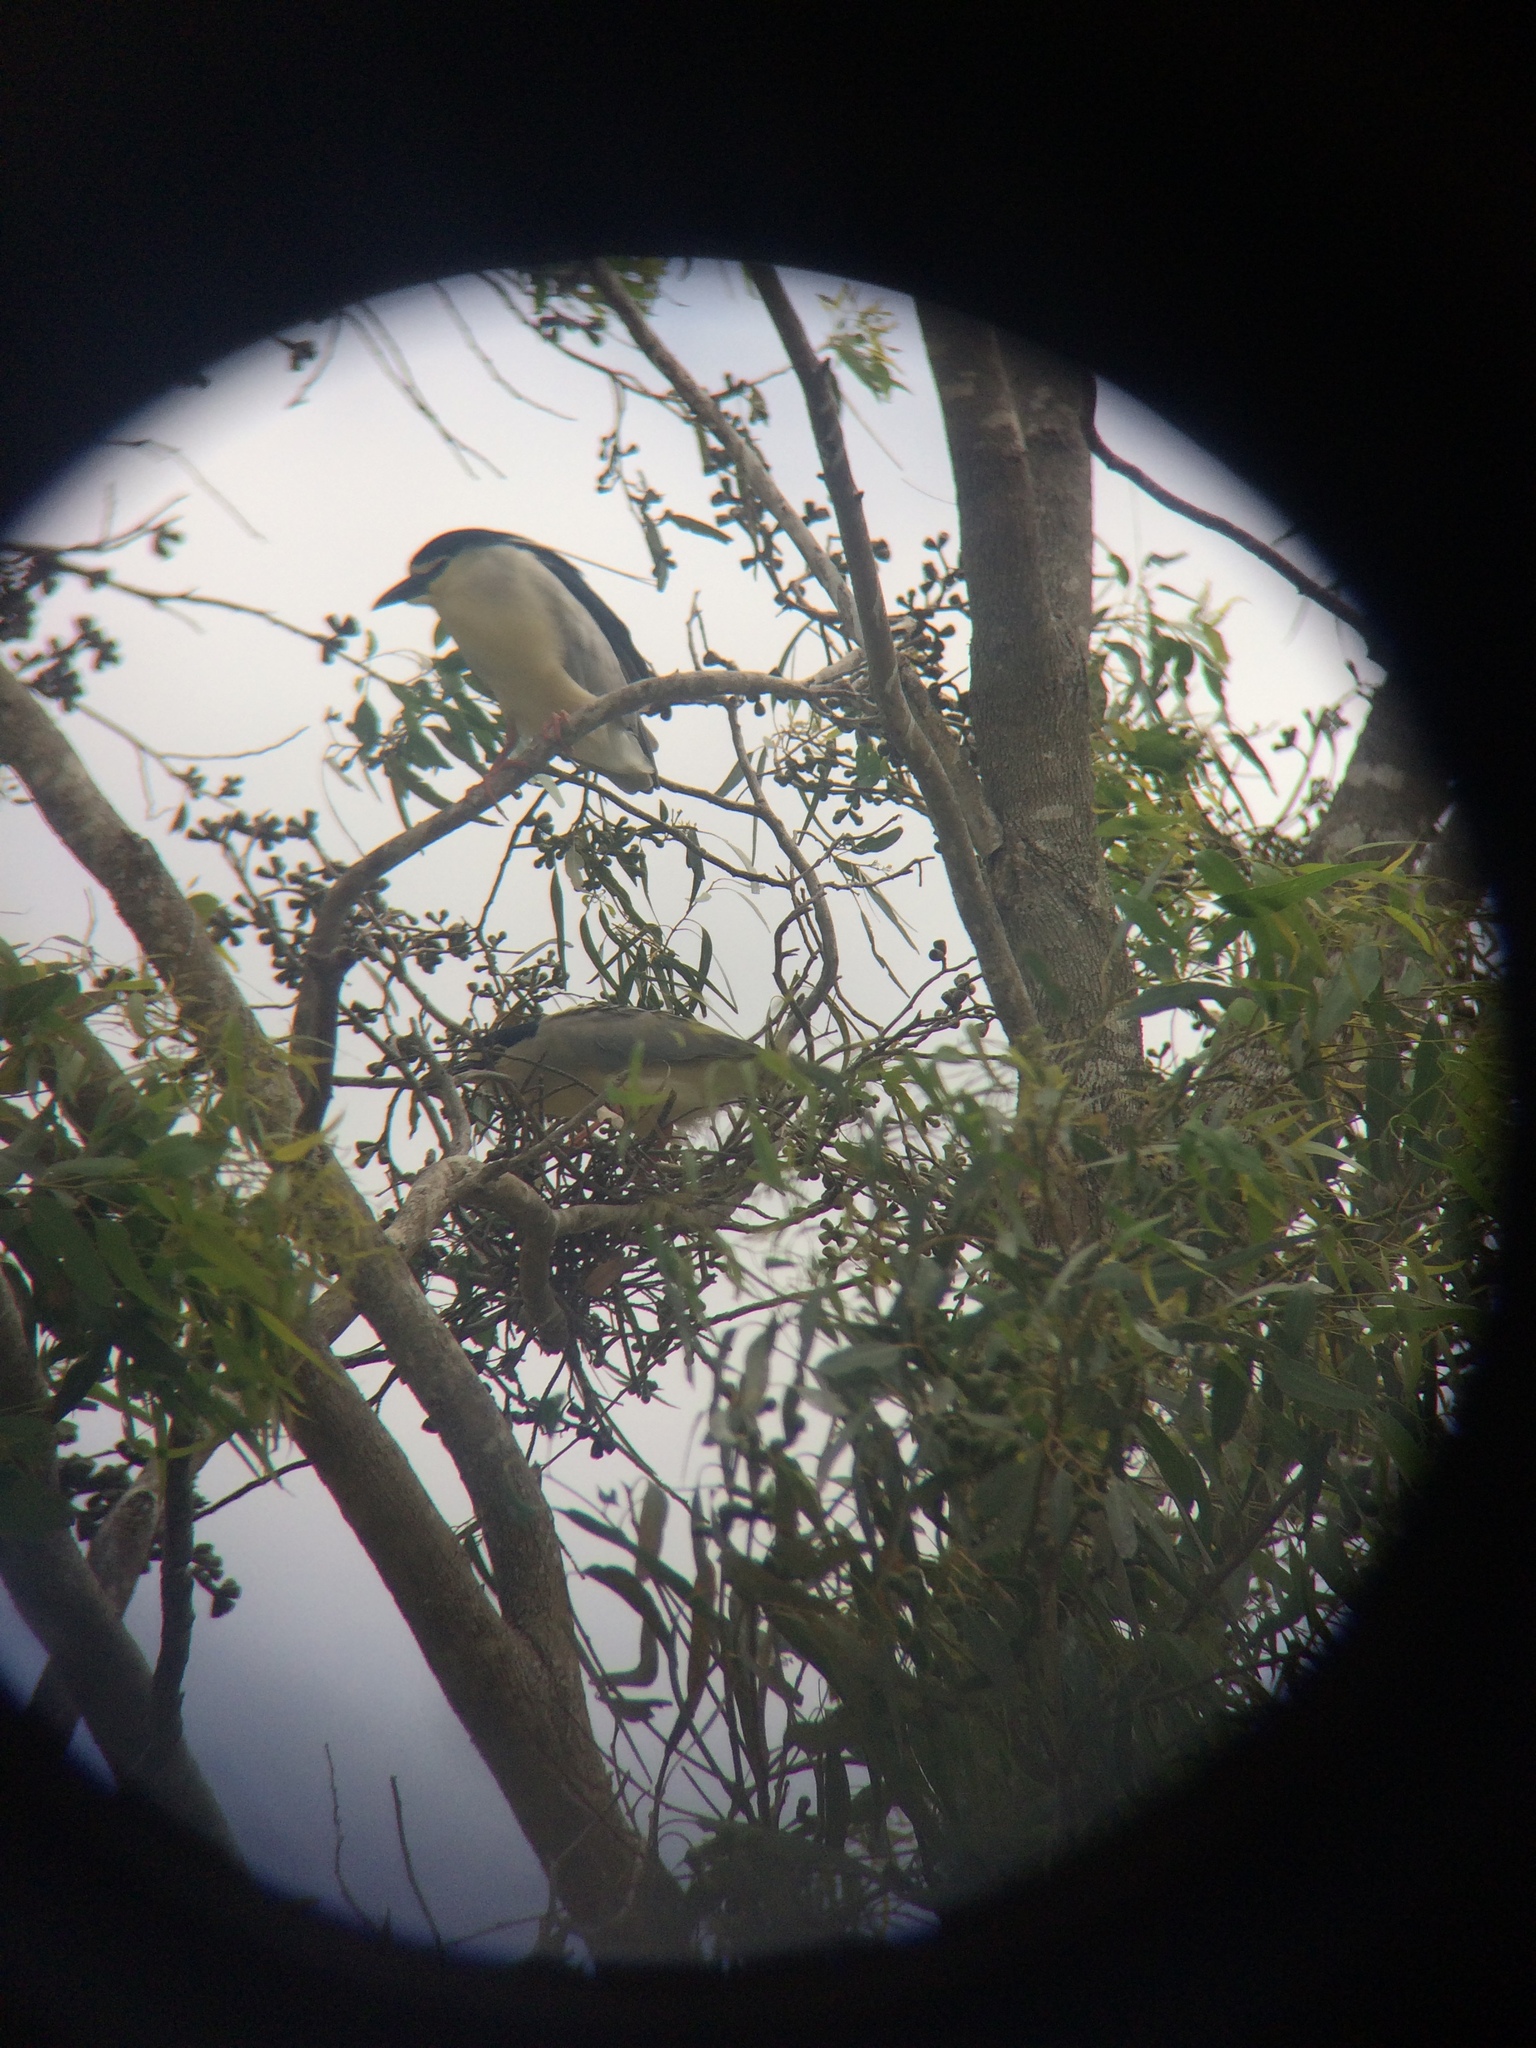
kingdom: Animalia
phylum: Chordata
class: Aves
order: Pelecaniformes
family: Ardeidae
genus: Nycticorax
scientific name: Nycticorax nycticorax
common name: Black-crowned night heron
